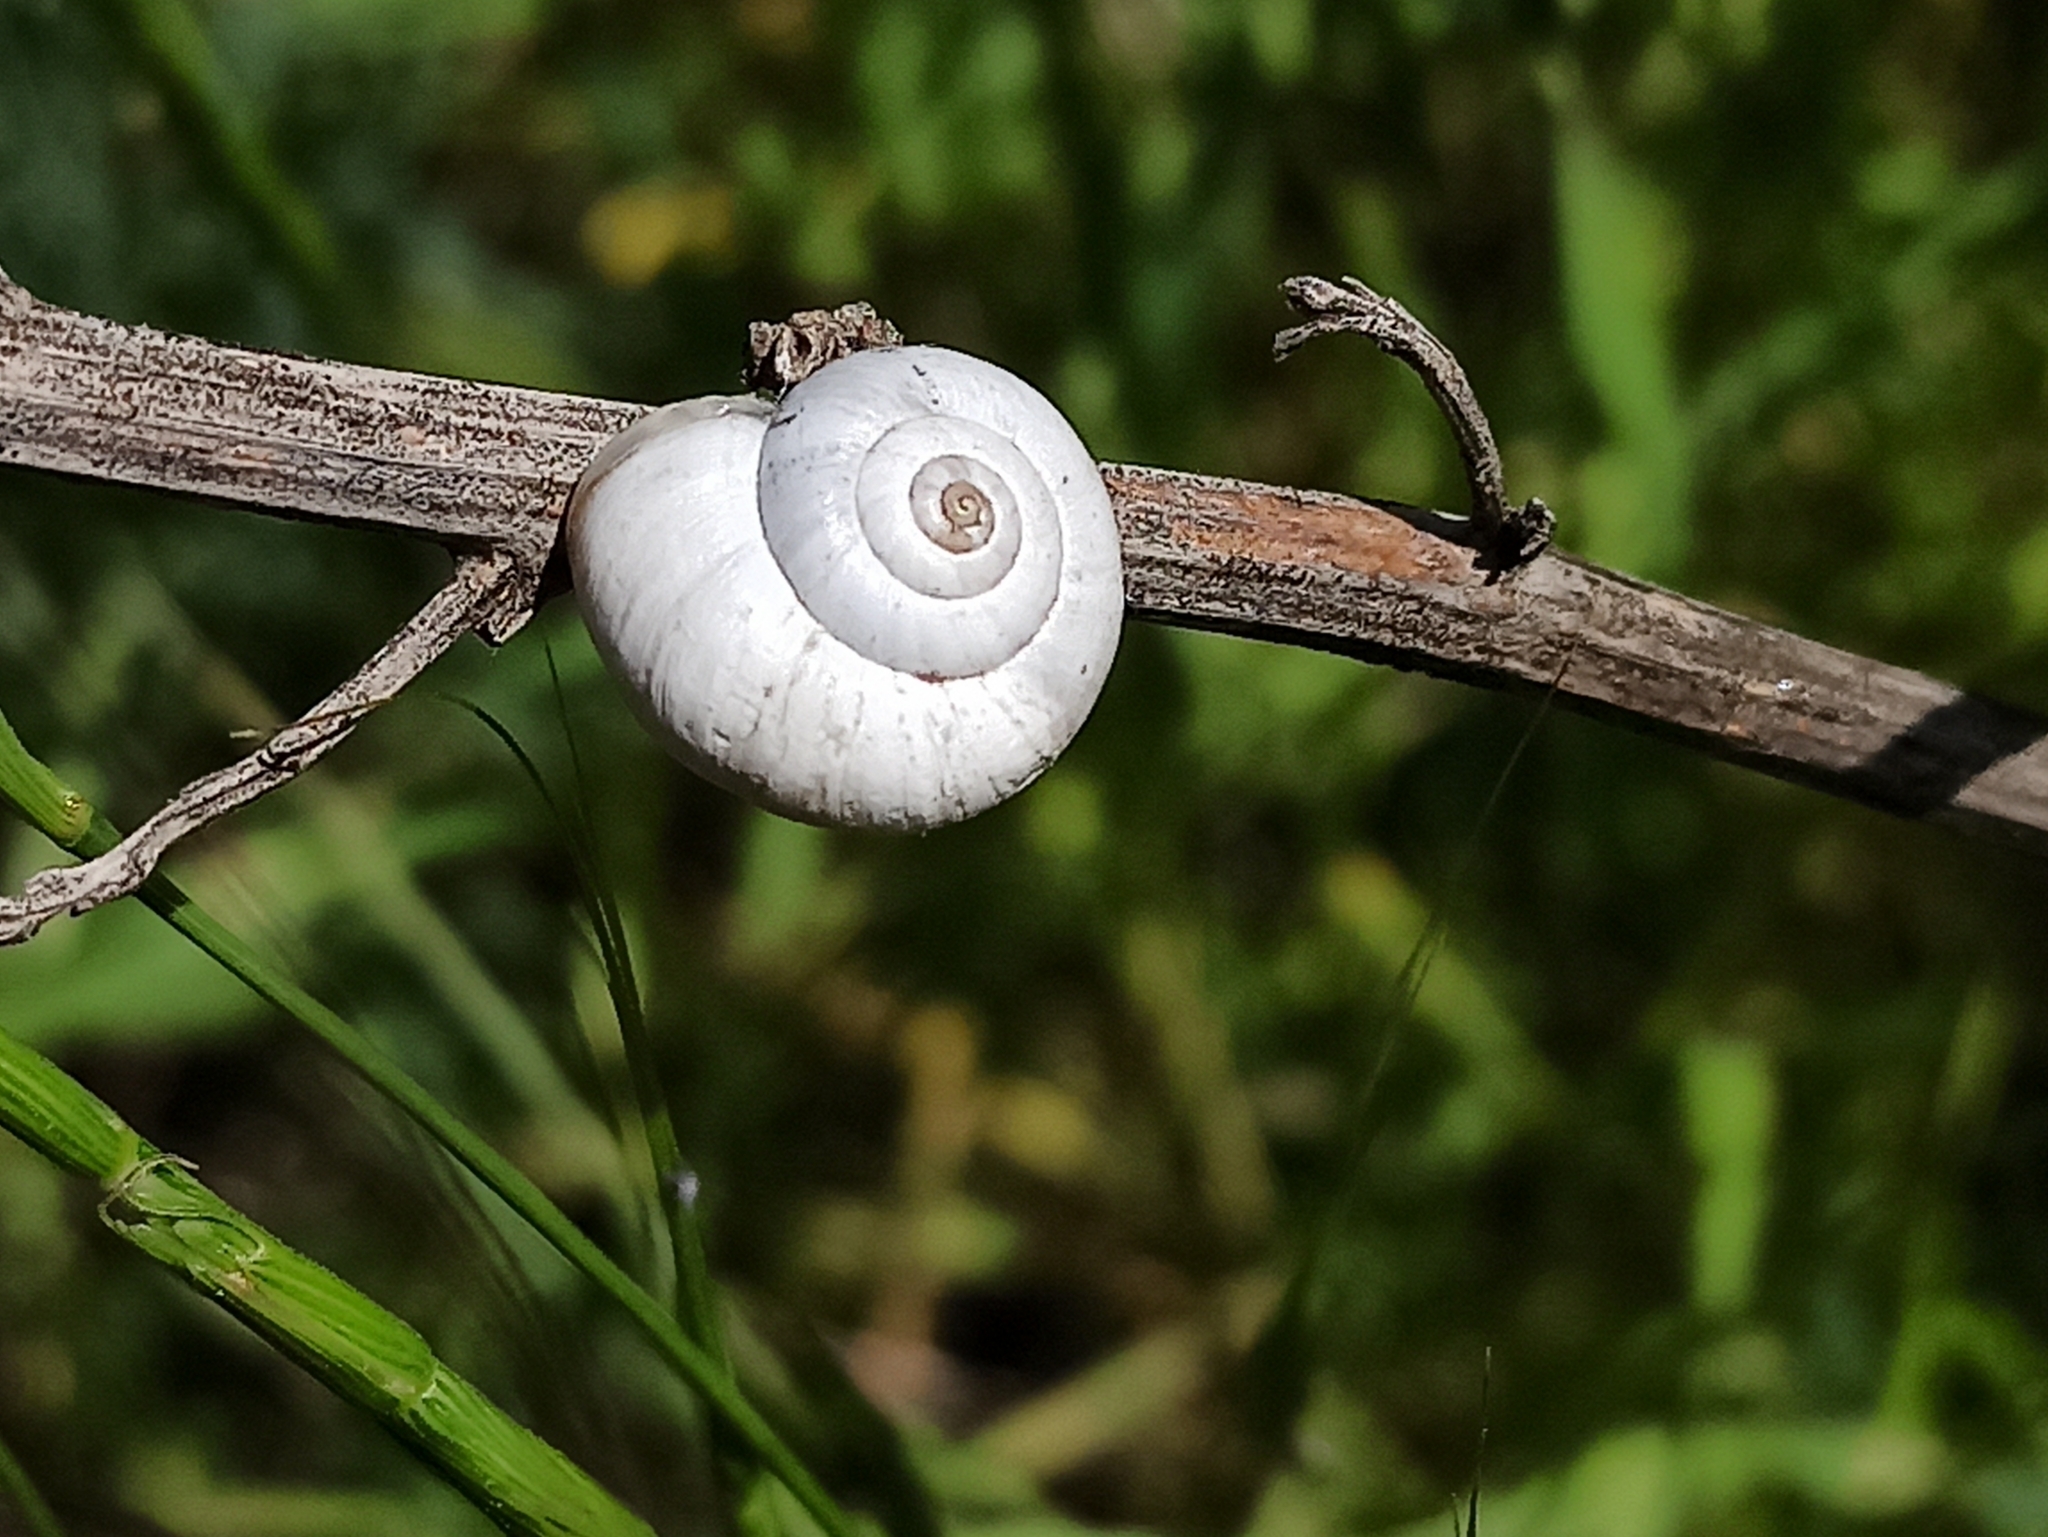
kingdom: Animalia
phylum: Mollusca
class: Gastropoda
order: Stylommatophora
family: Geomitridae
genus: Xeropicta
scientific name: Xeropicta derbentina
